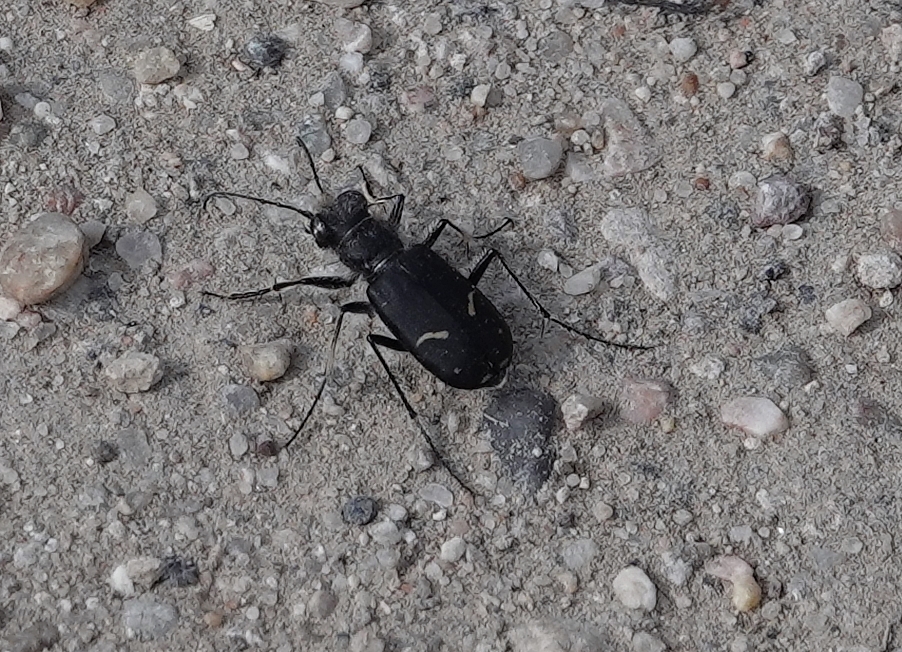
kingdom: Animalia
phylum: Arthropoda
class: Insecta
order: Coleoptera
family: Carabidae
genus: Cicindela
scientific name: Cicindela purpurea
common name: Cow path tiger beetle
